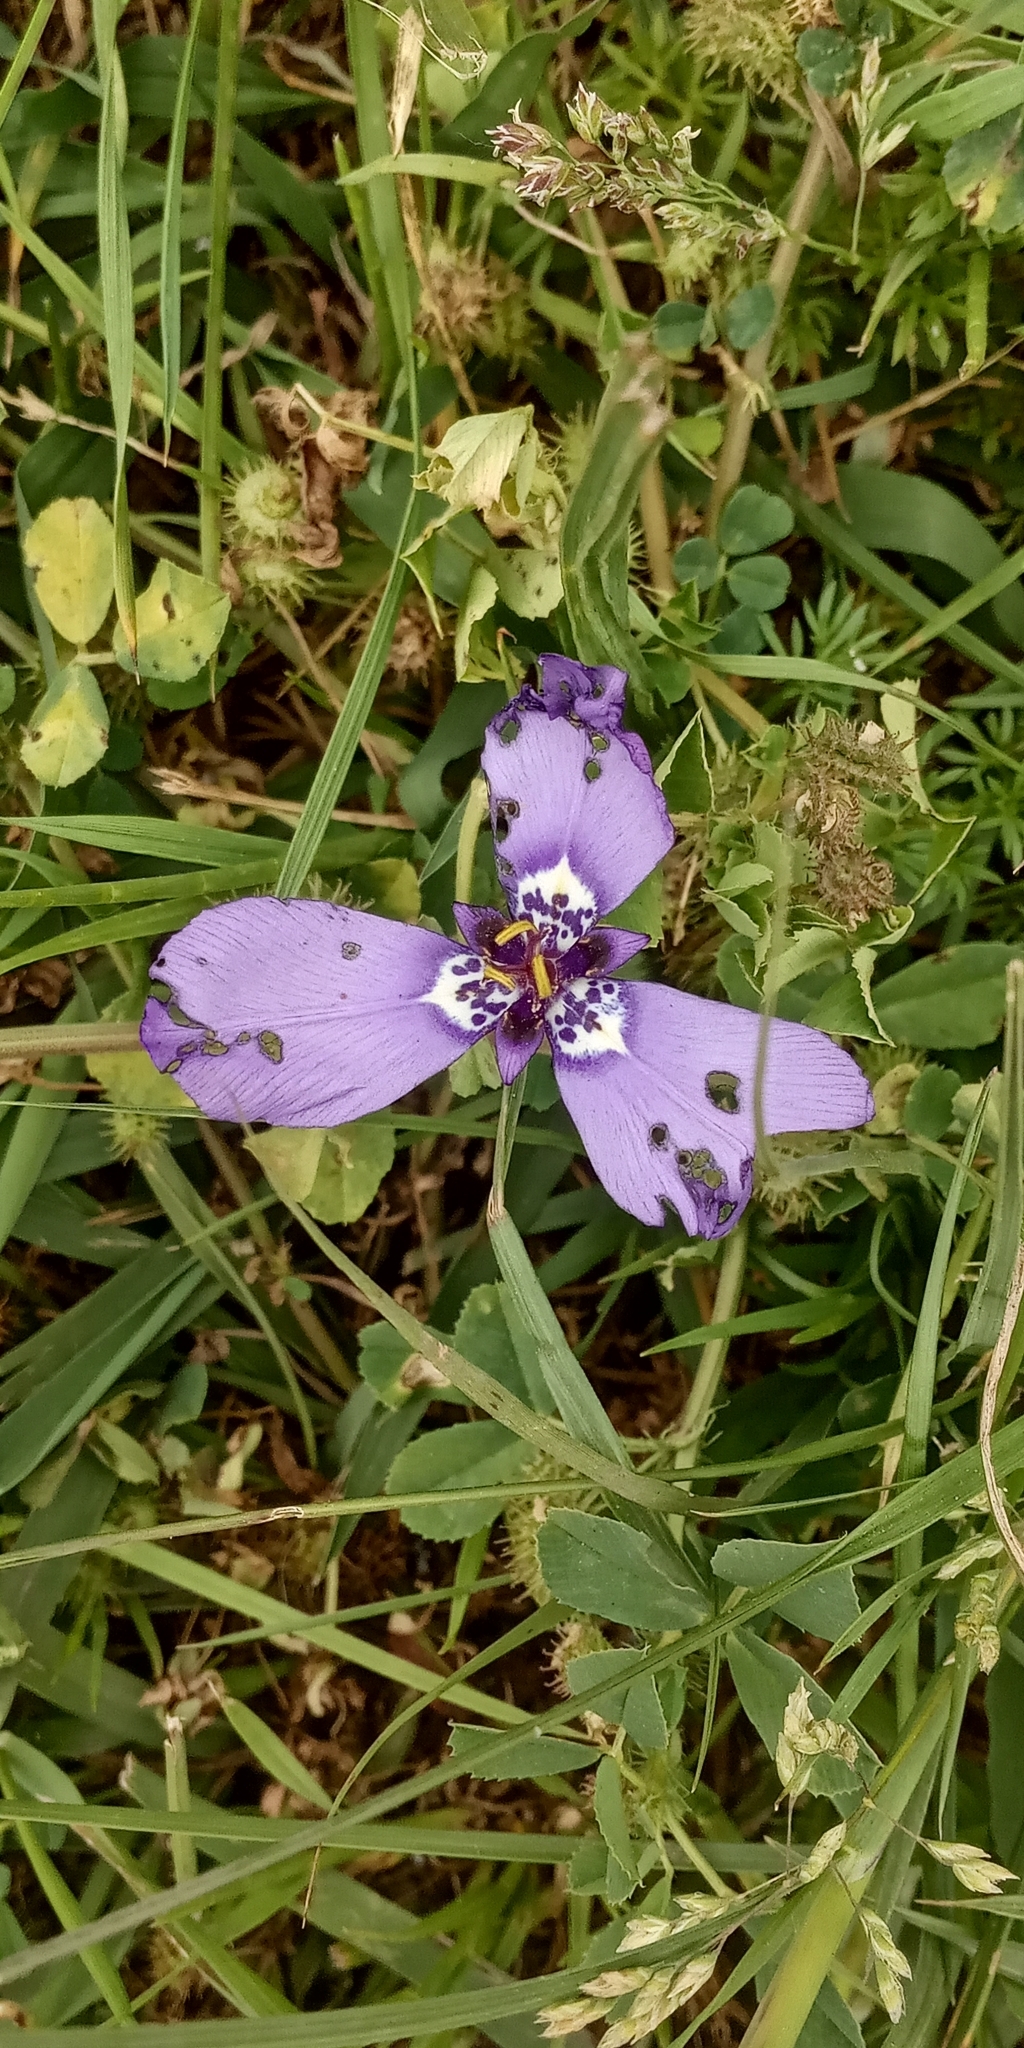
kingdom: Plantae
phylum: Tracheophyta
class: Liliopsida
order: Asparagales
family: Iridaceae
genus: Herbertia
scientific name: Herbertia lahue
